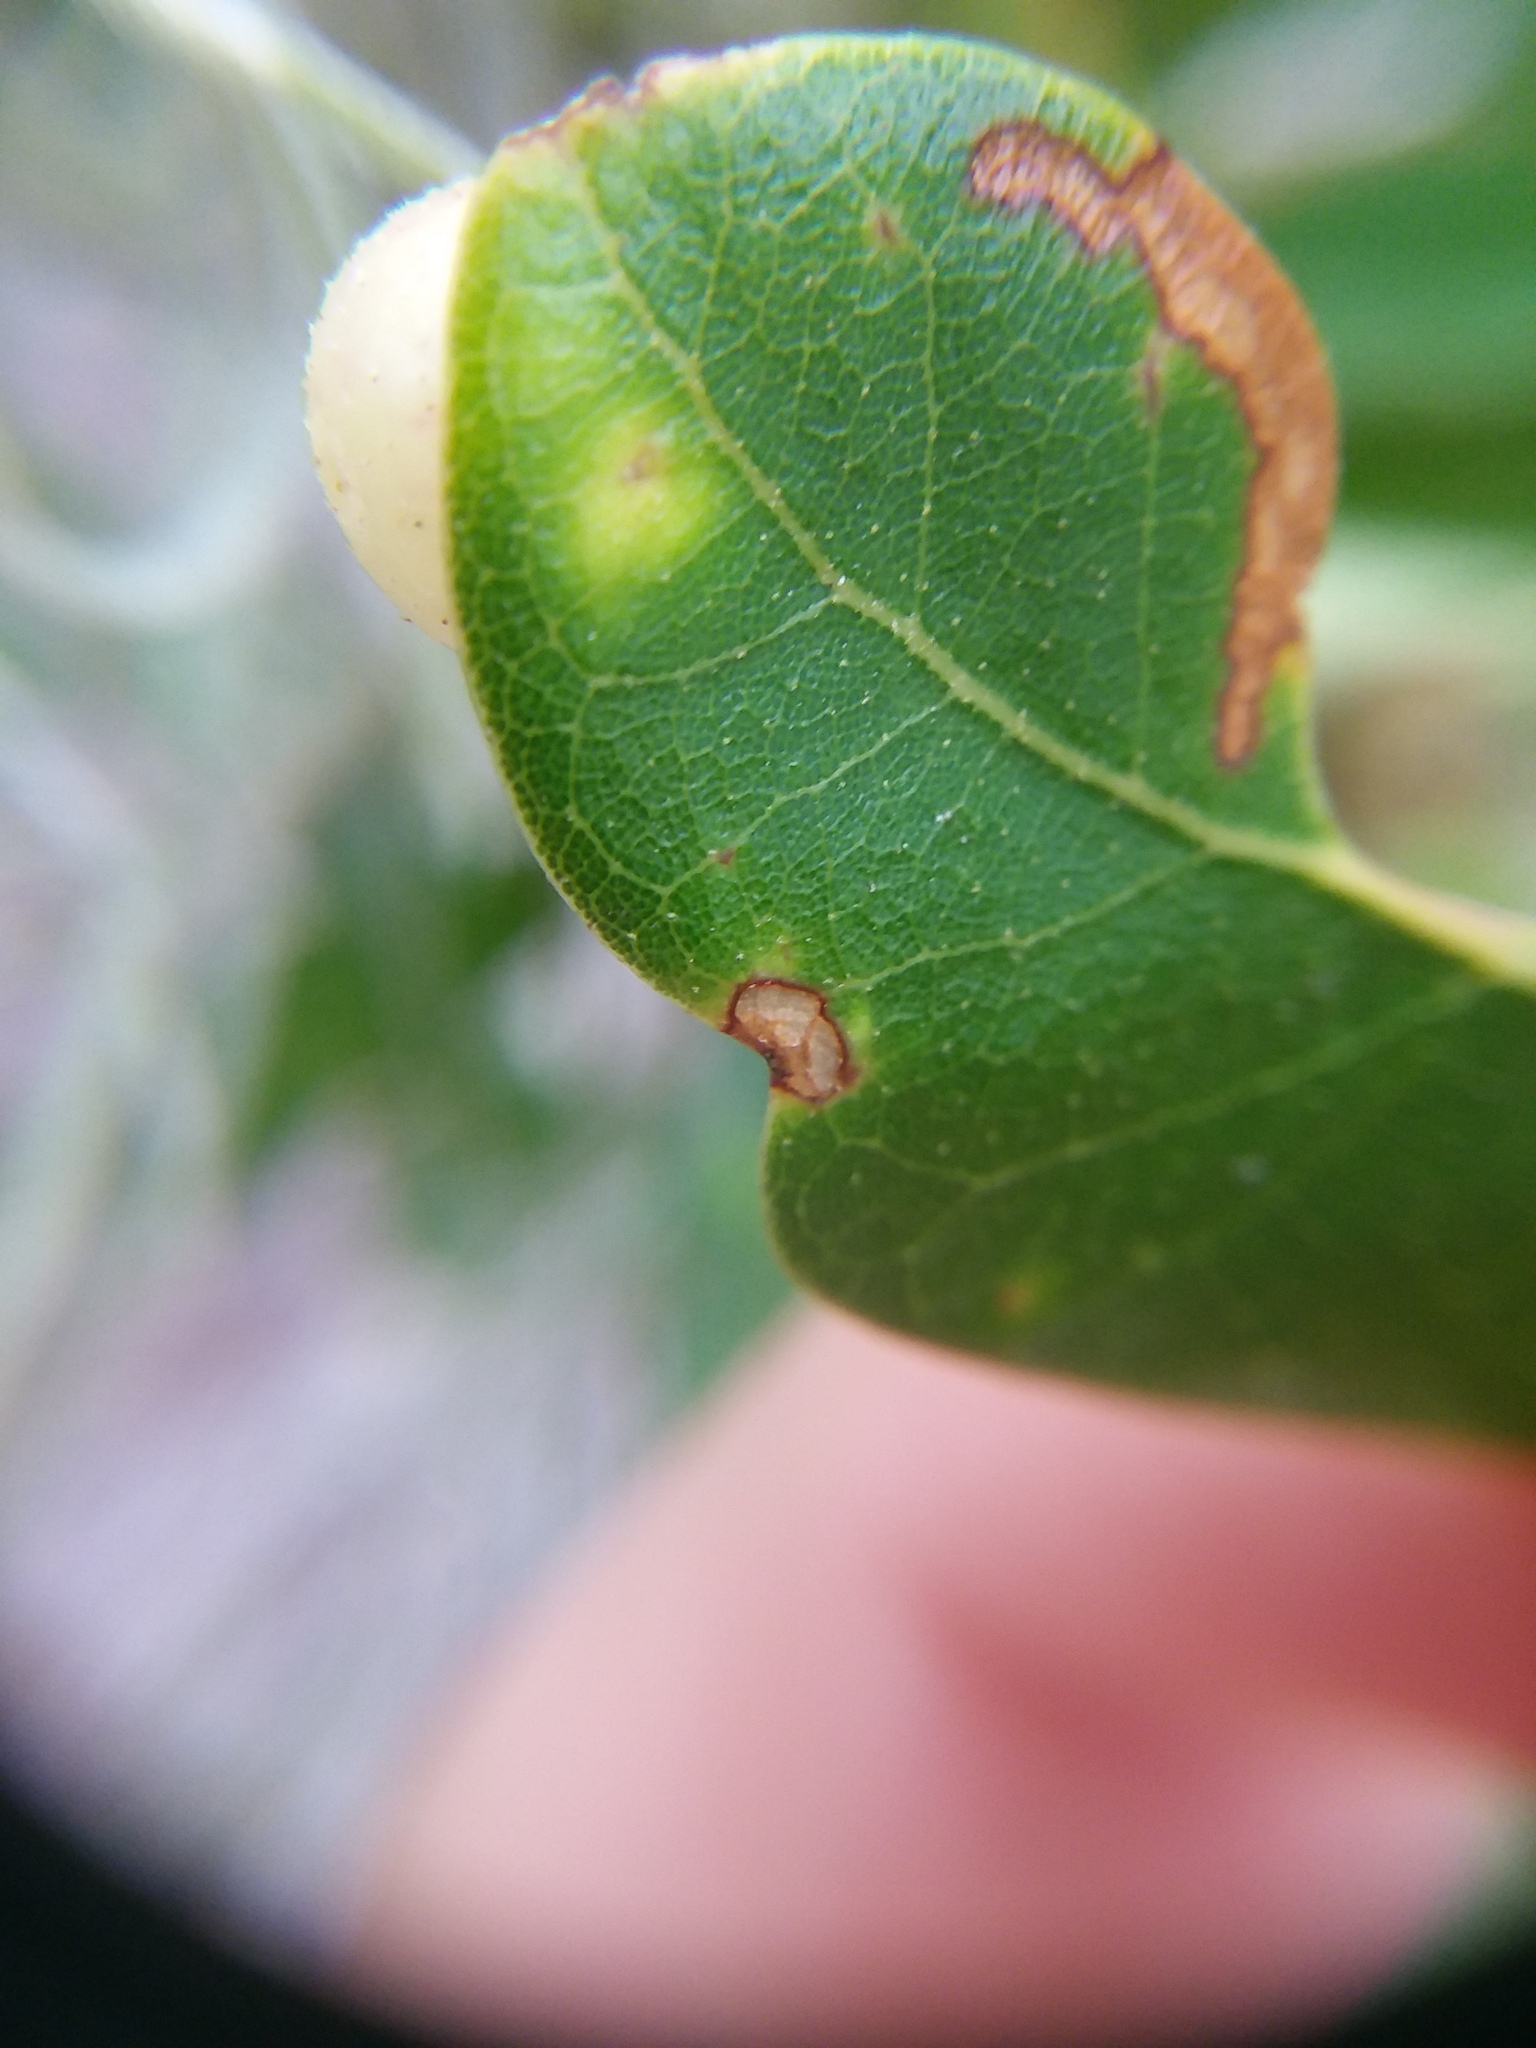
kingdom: Animalia
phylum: Arthropoda
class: Insecta
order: Hymenoptera
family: Cynipidae
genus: Belonocnema
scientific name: Belonocnema treatae
